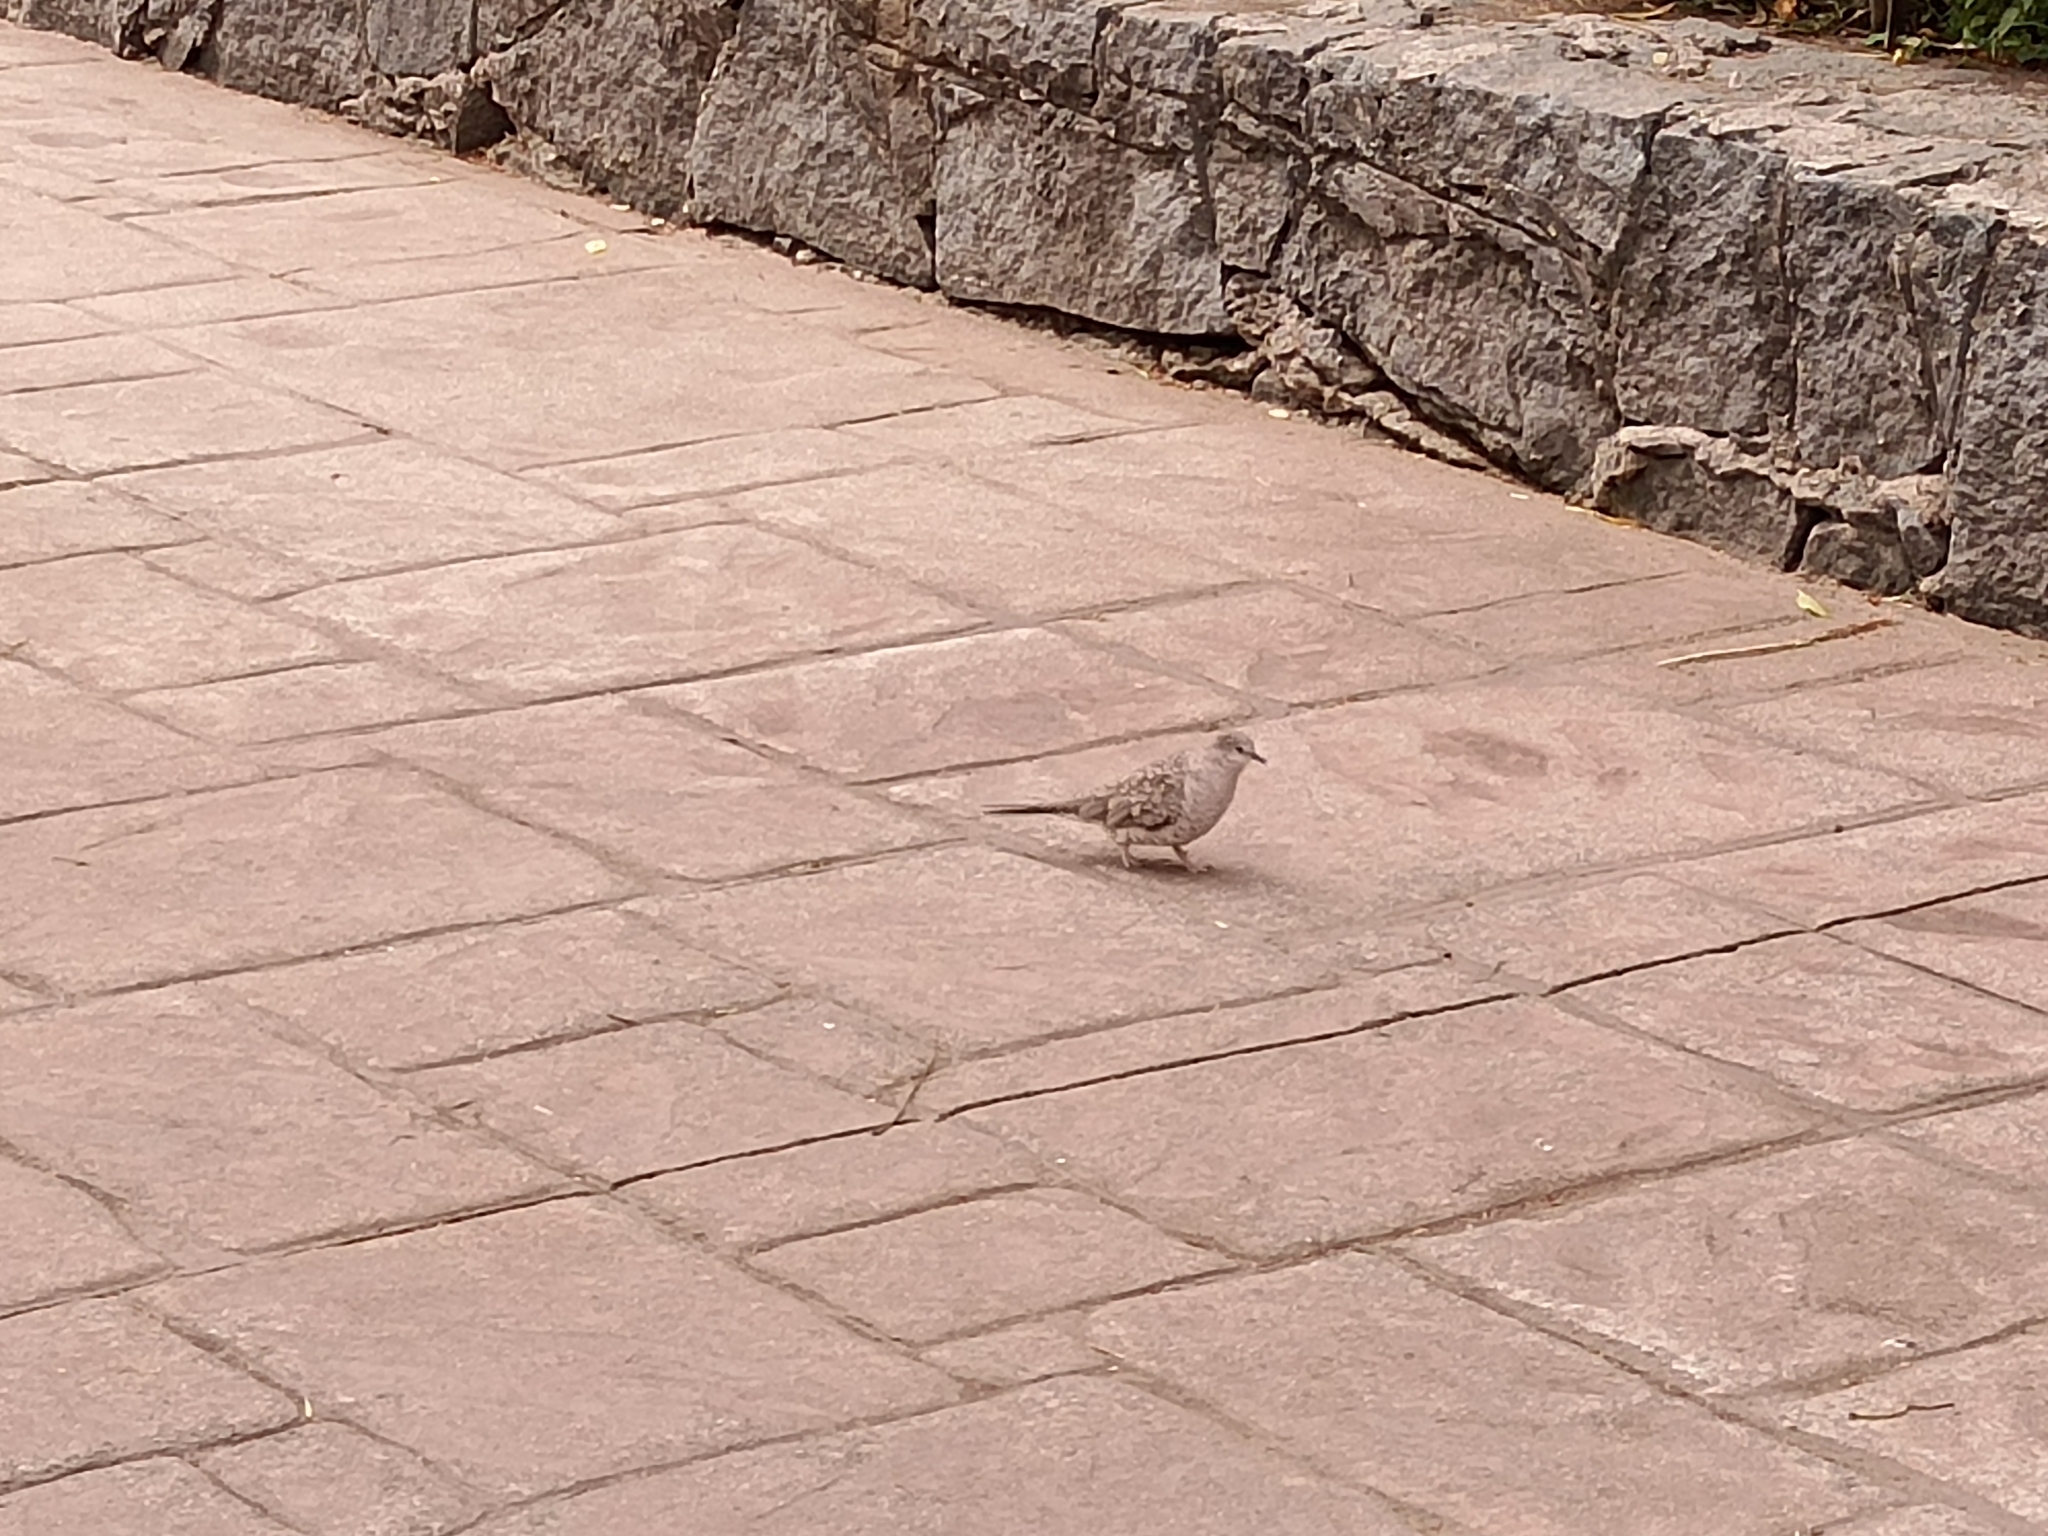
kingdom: Animalia
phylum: Chordata
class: Aves
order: Columbiformes
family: Columbidae
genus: Columbina
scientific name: Columbina inca
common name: Inca dove
